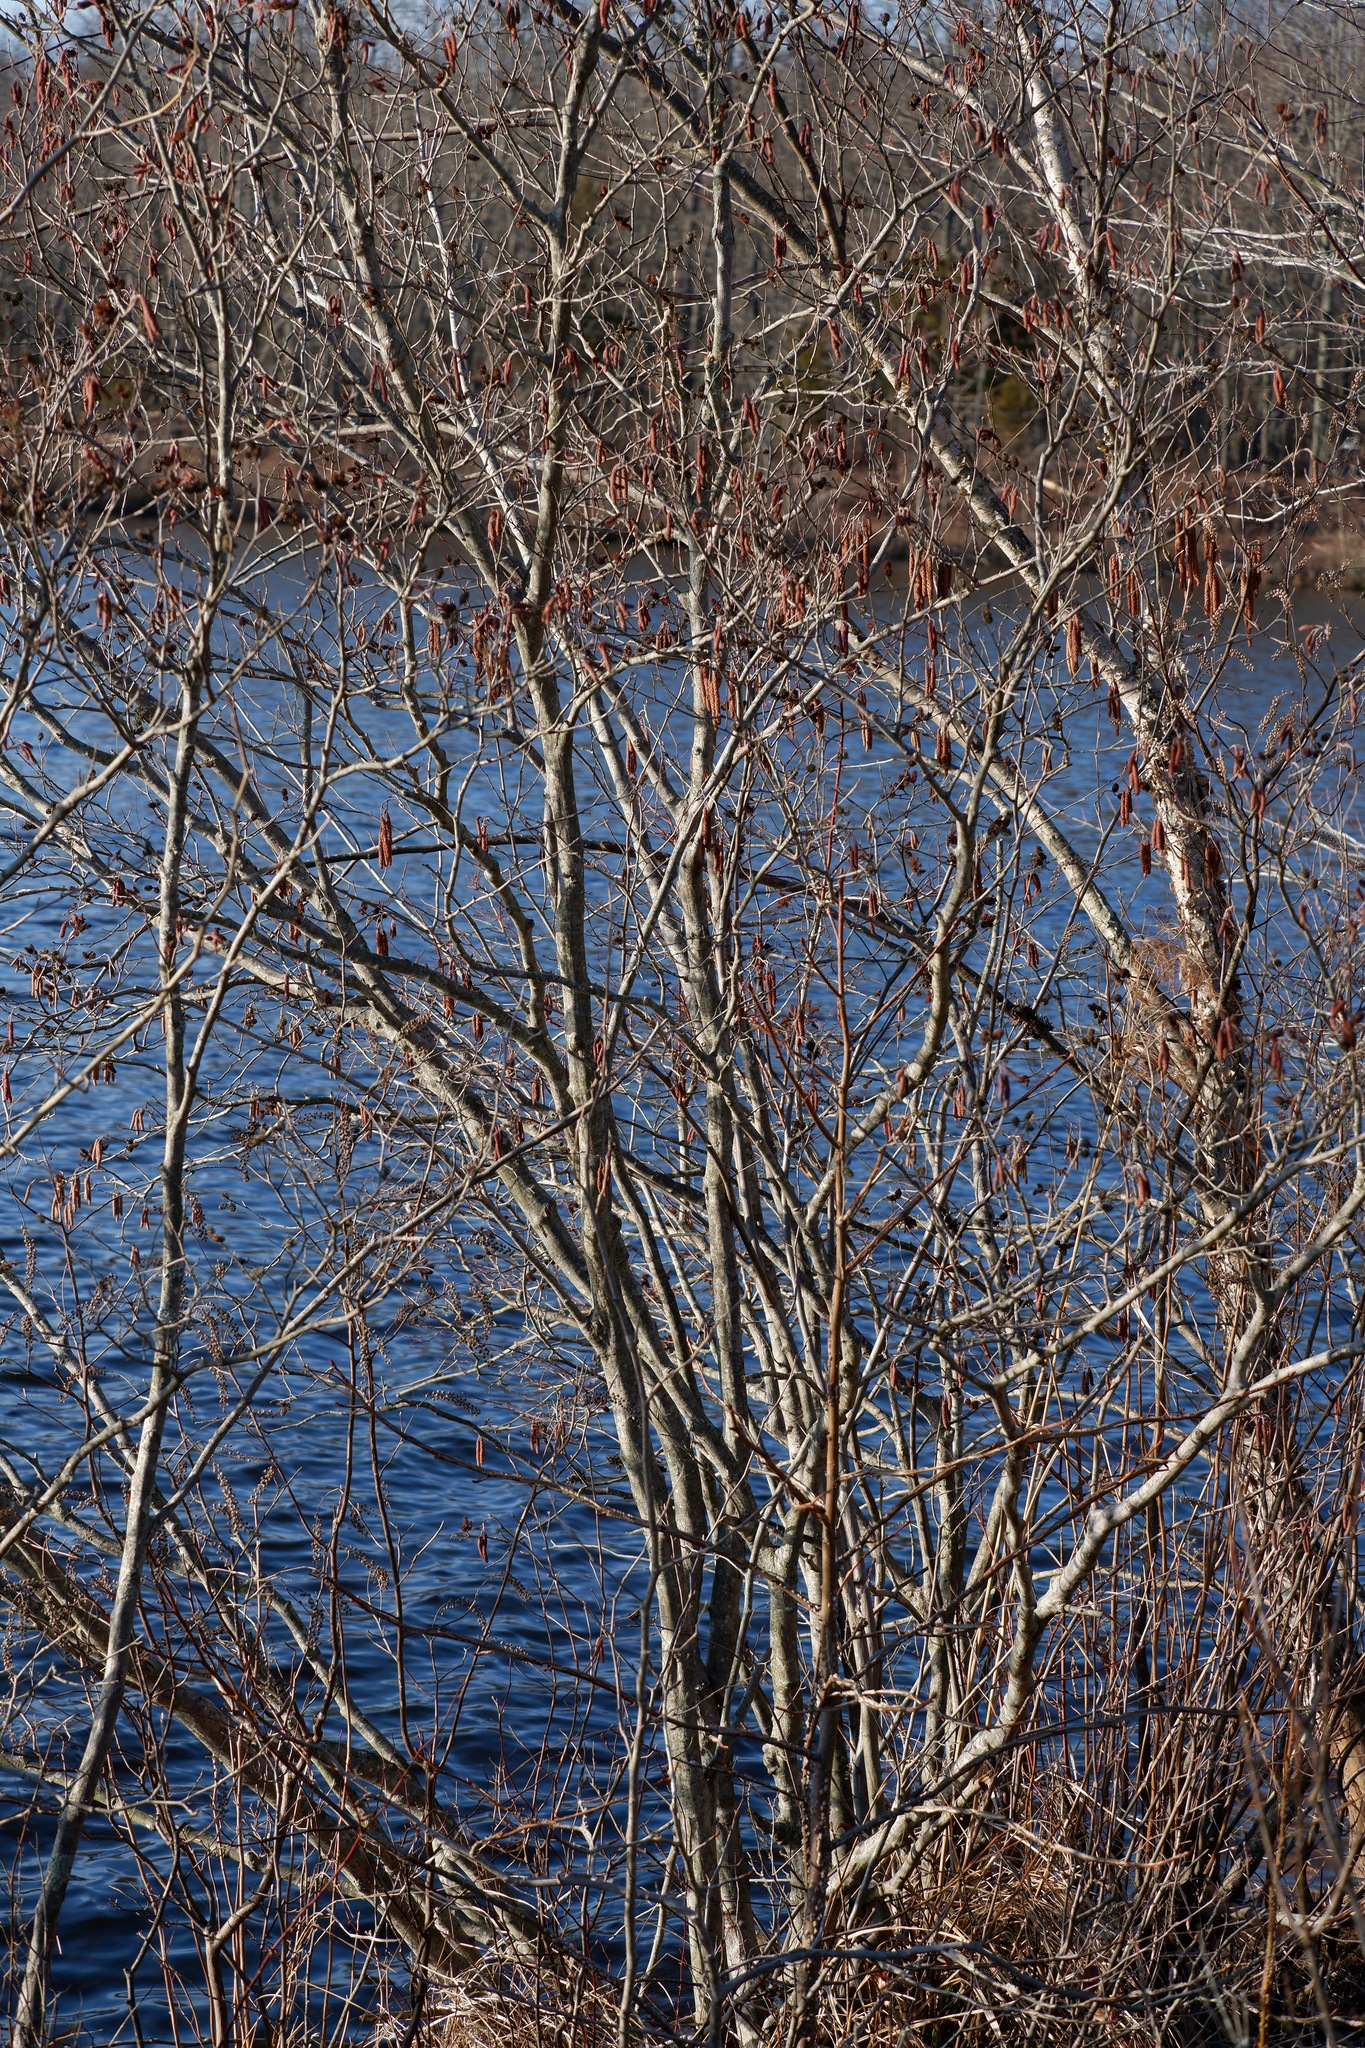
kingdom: Plantae
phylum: Tracheophyta
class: Magnoliopsida
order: Fagales
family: Betulaceae
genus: Alnus
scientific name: Alnus serrulata
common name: Hazel alder
